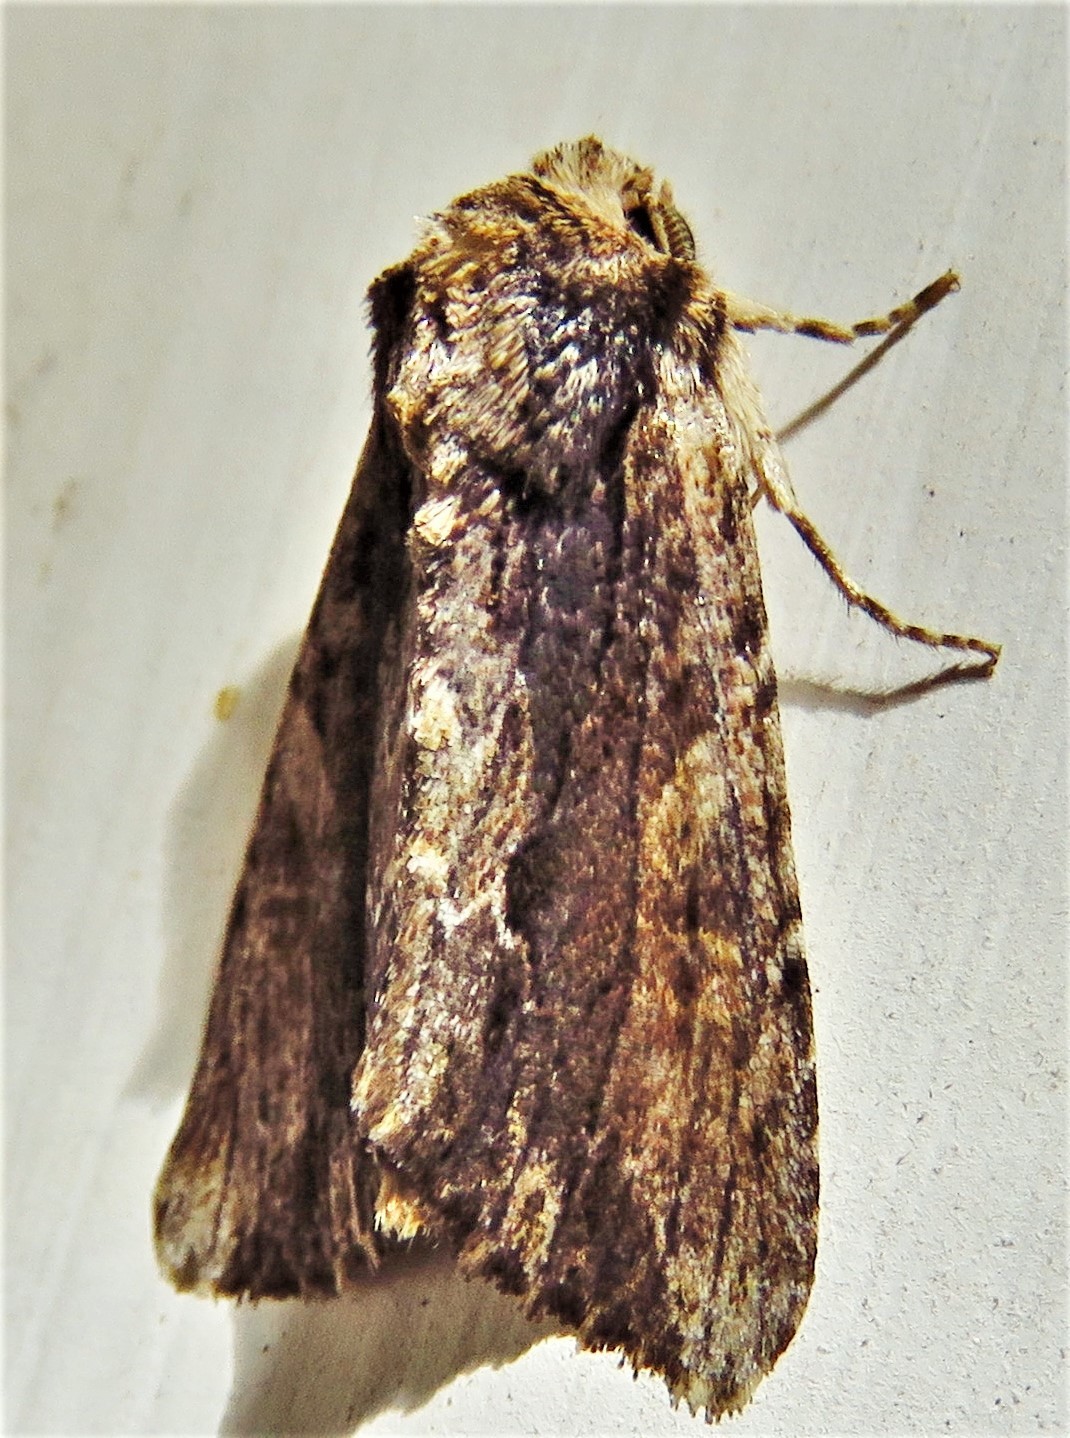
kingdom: Animalia
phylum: Arthropoda
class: Insecta
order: Lepidoptera
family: Noctuidae
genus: Achatia
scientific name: Achatia mucens
